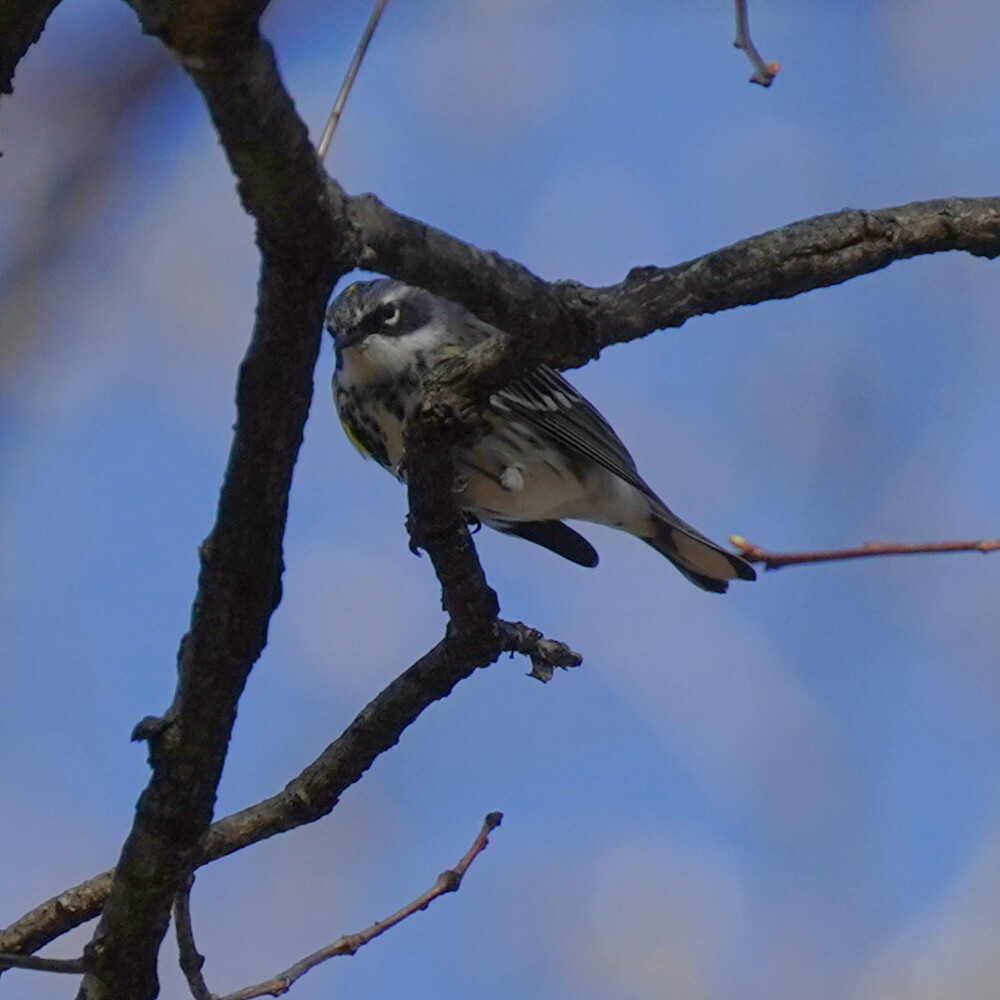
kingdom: Animalia
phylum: Chordata
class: Aves
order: Passeriformes
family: Parulidae
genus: Setophaga
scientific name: Setophaga coronata
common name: Myrtle warbler
